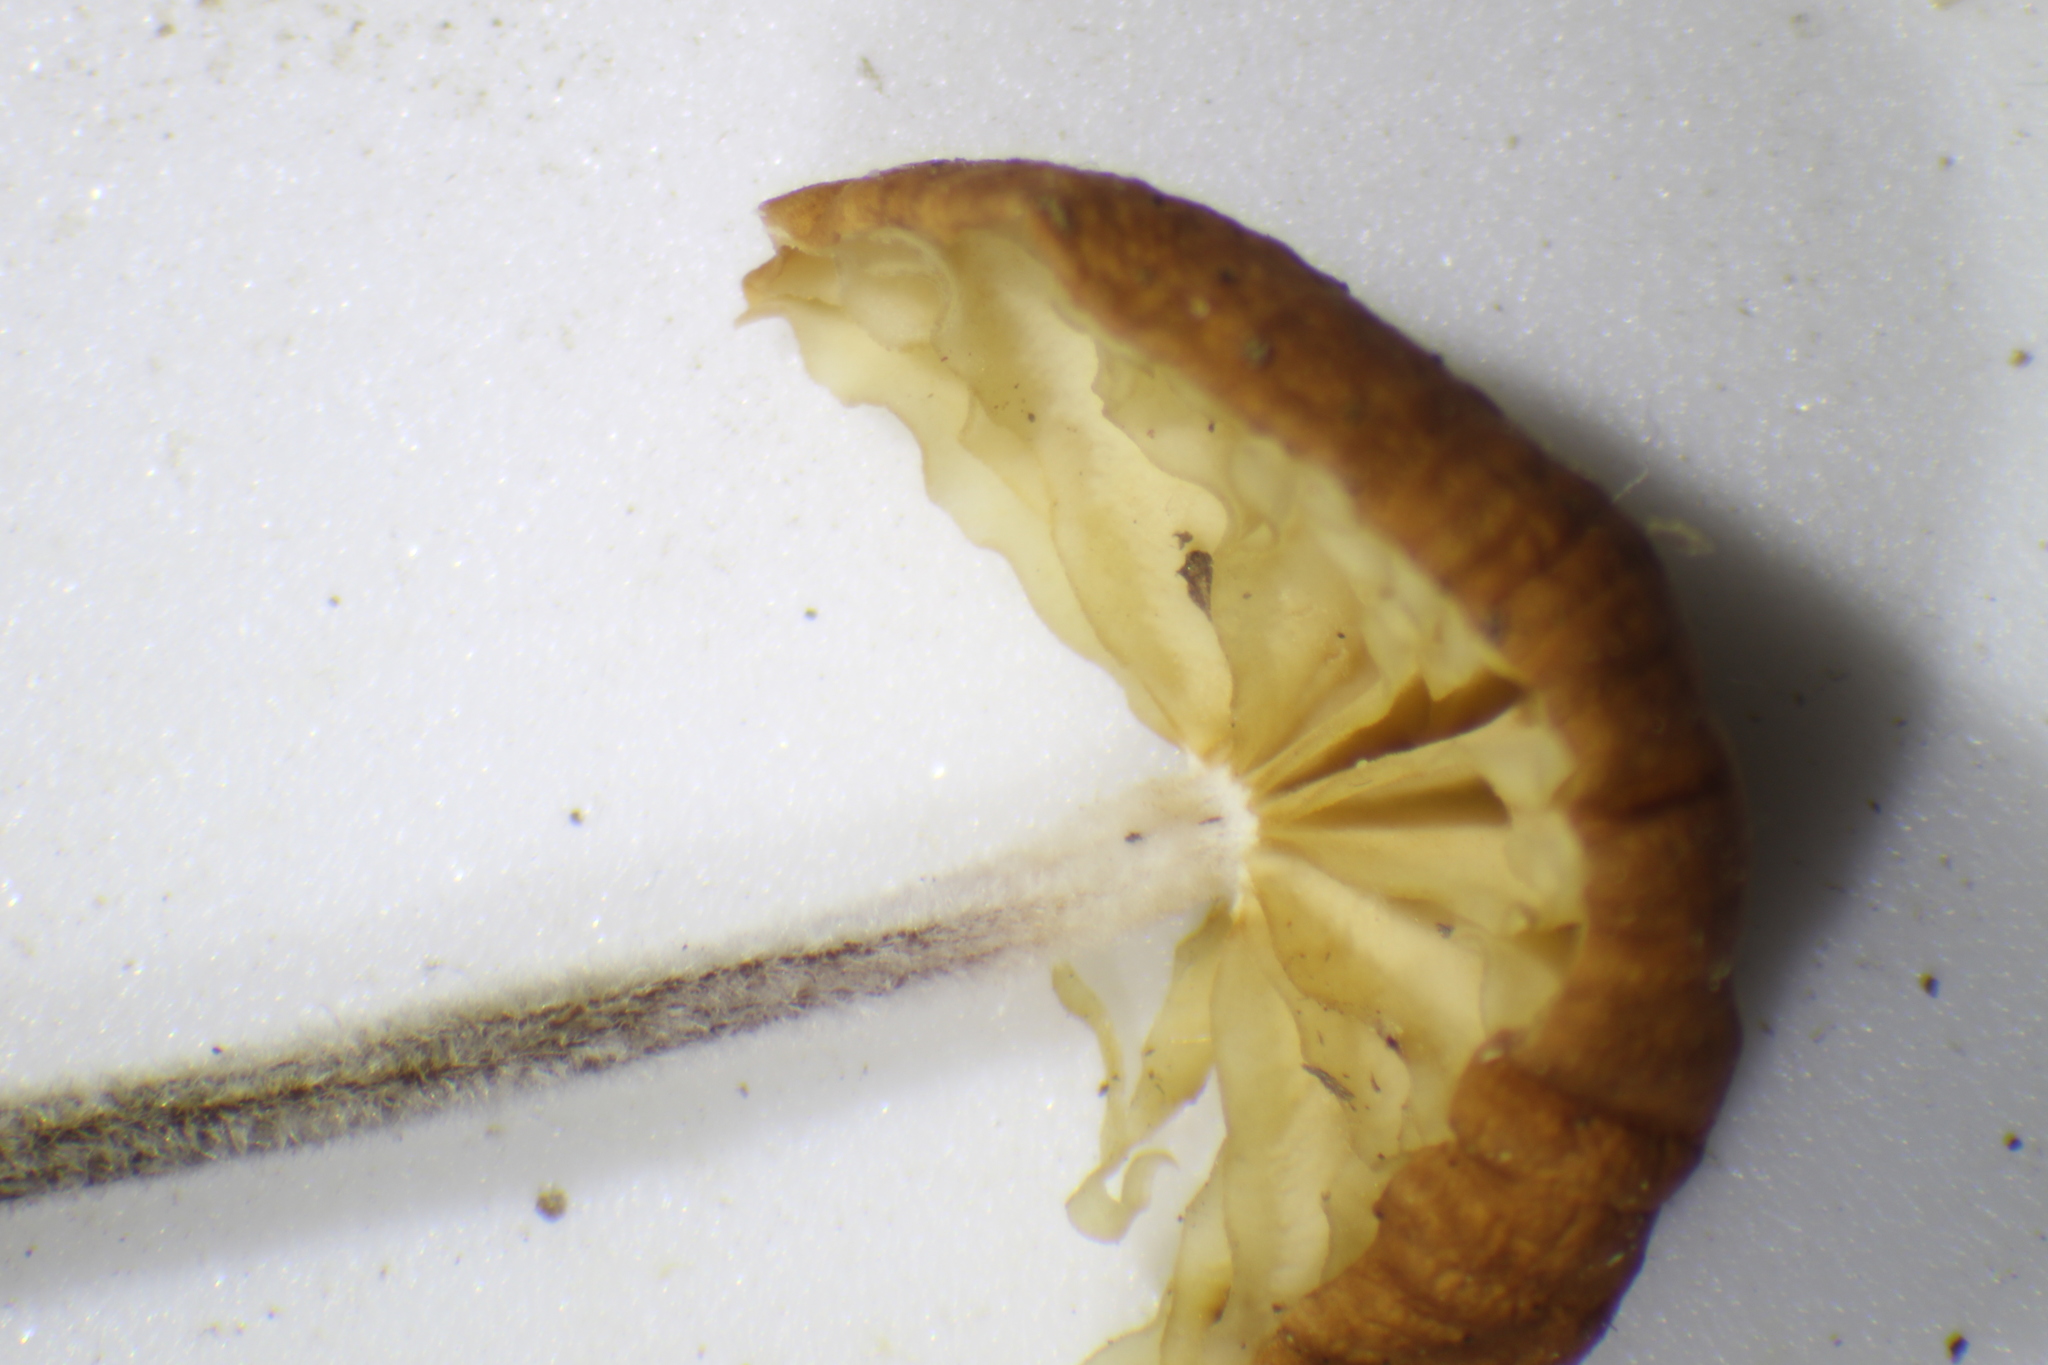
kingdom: Fungi
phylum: Basidiomycota
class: Agaricomycetes
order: Agaricales
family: Physalacriaceae
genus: Rhizomarasmius
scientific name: Rhizomarasmius pyrrhocephalus
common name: Hairy long stem marasmius
